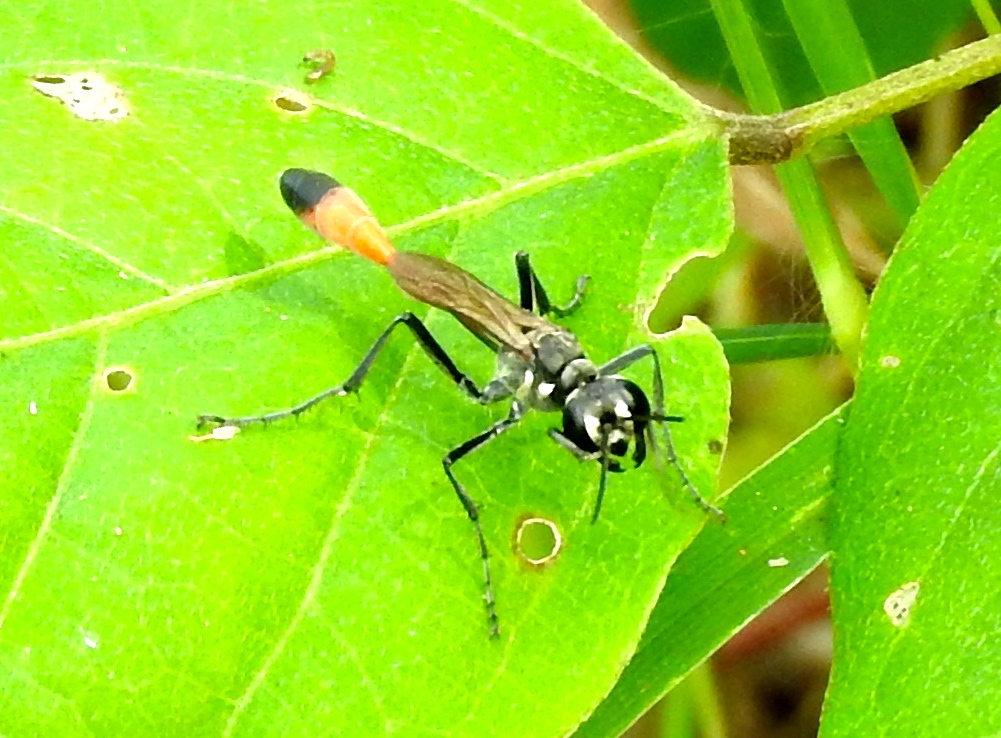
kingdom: Animalia
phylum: Arthropoda
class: Insecta
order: Hymenoptera
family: Sphecidae
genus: Ammophila
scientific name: Ammophila
